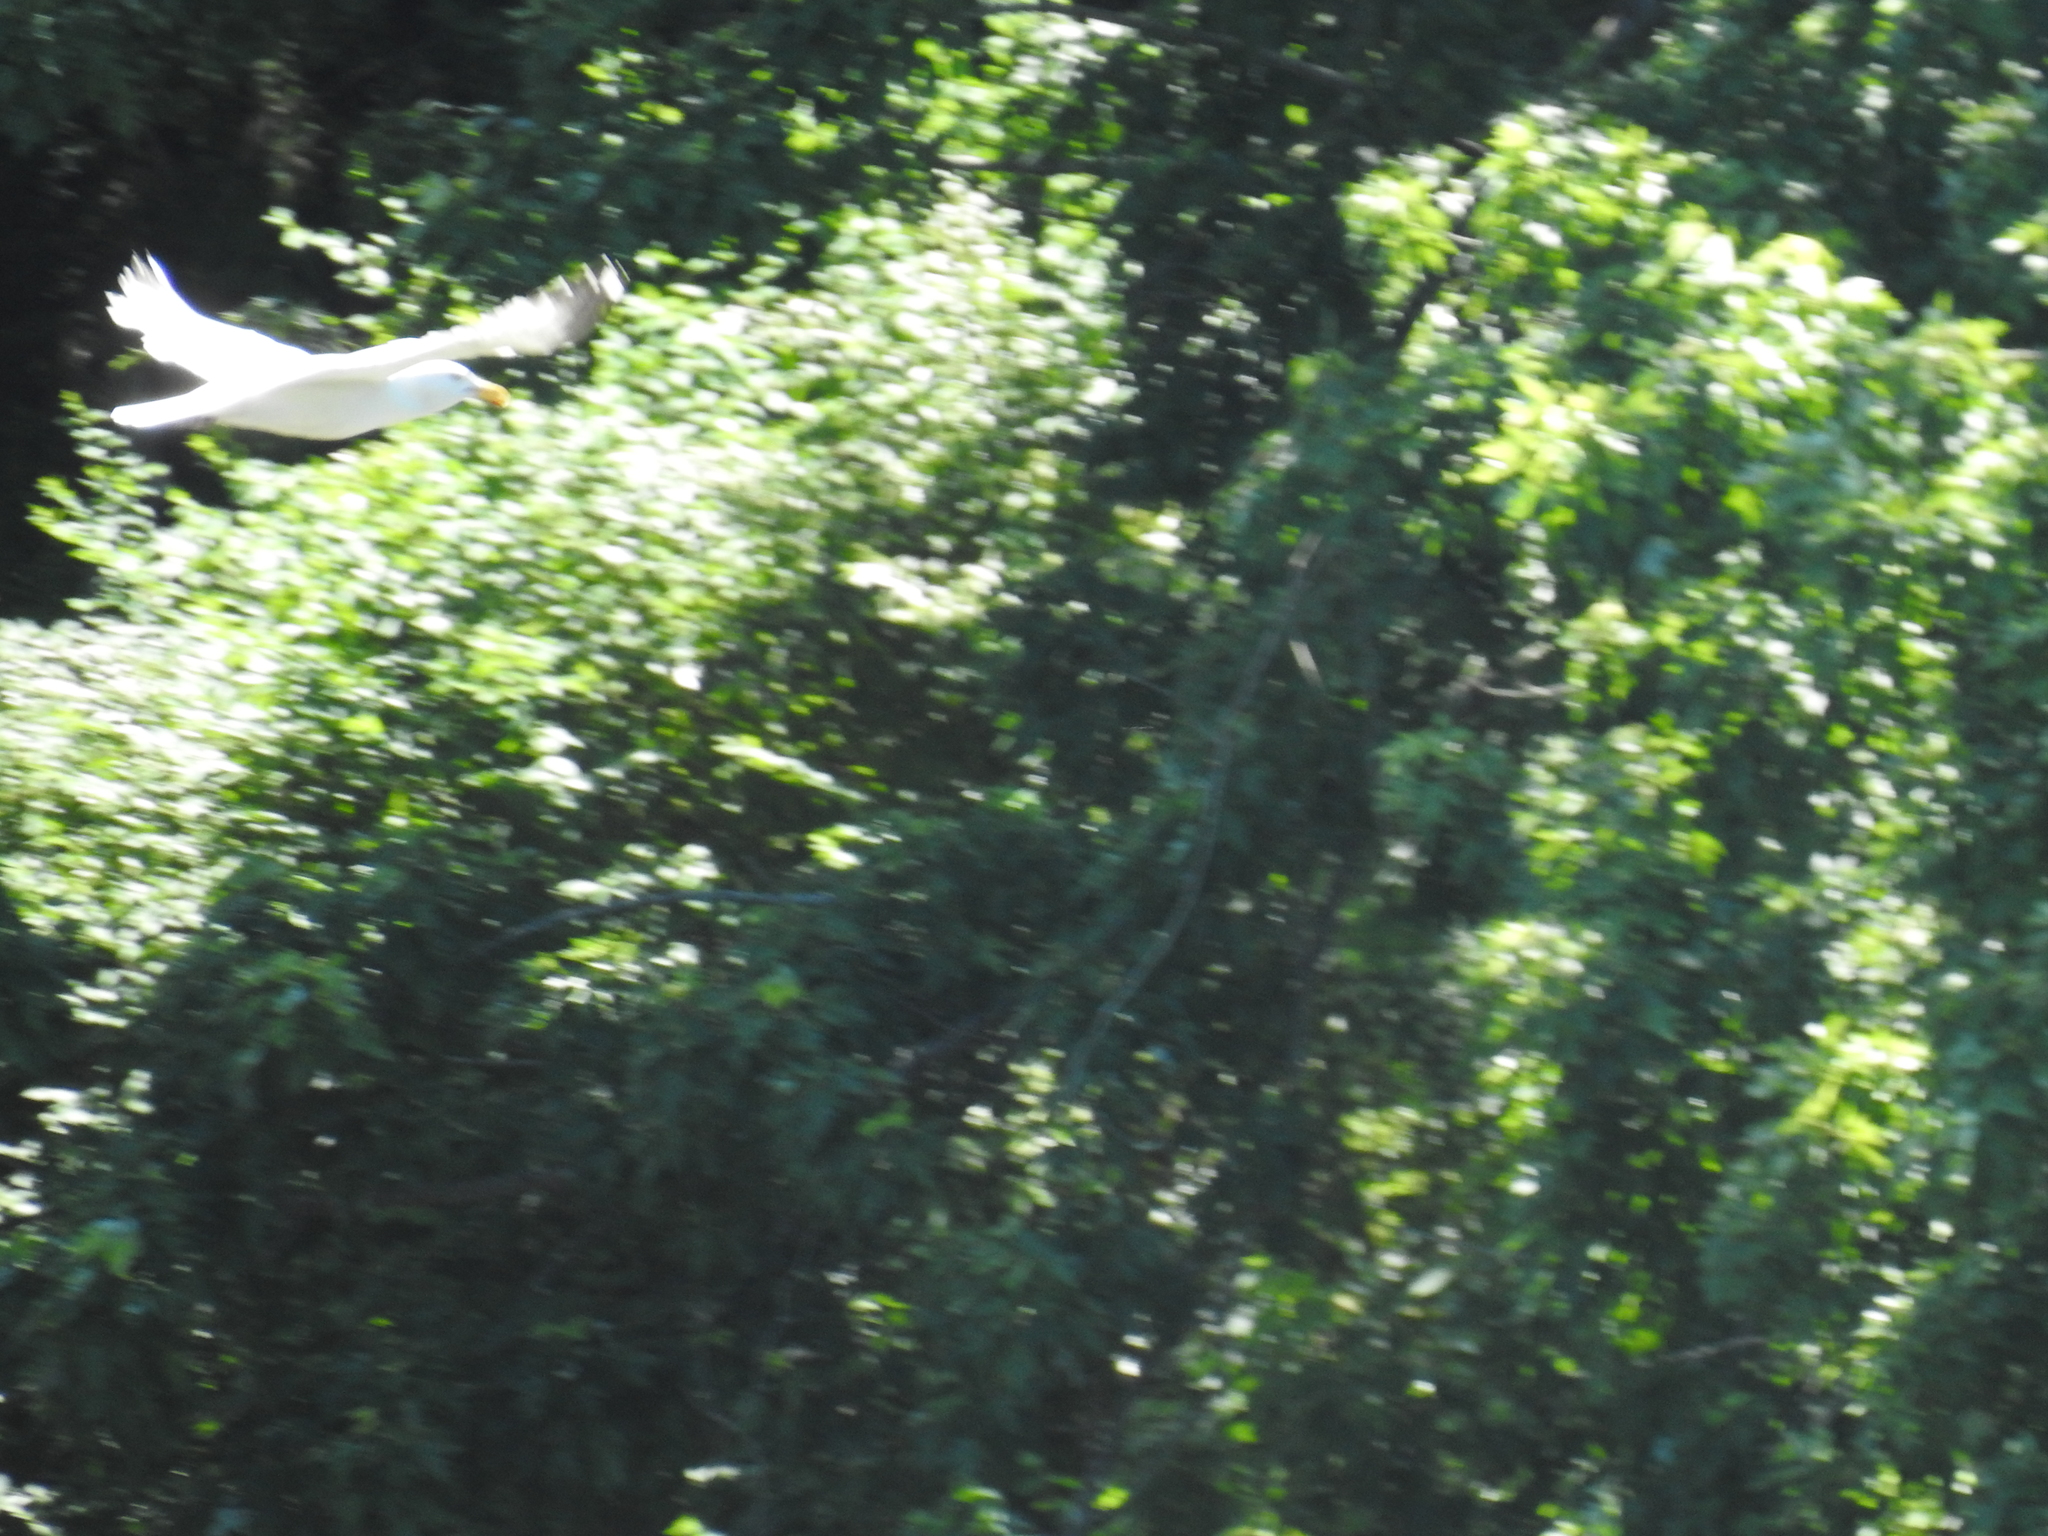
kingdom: Animalia
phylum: Chordata
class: Aves
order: Charadriiformes
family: Laridae
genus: Larus
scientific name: Larus argentatus
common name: Herring gull
